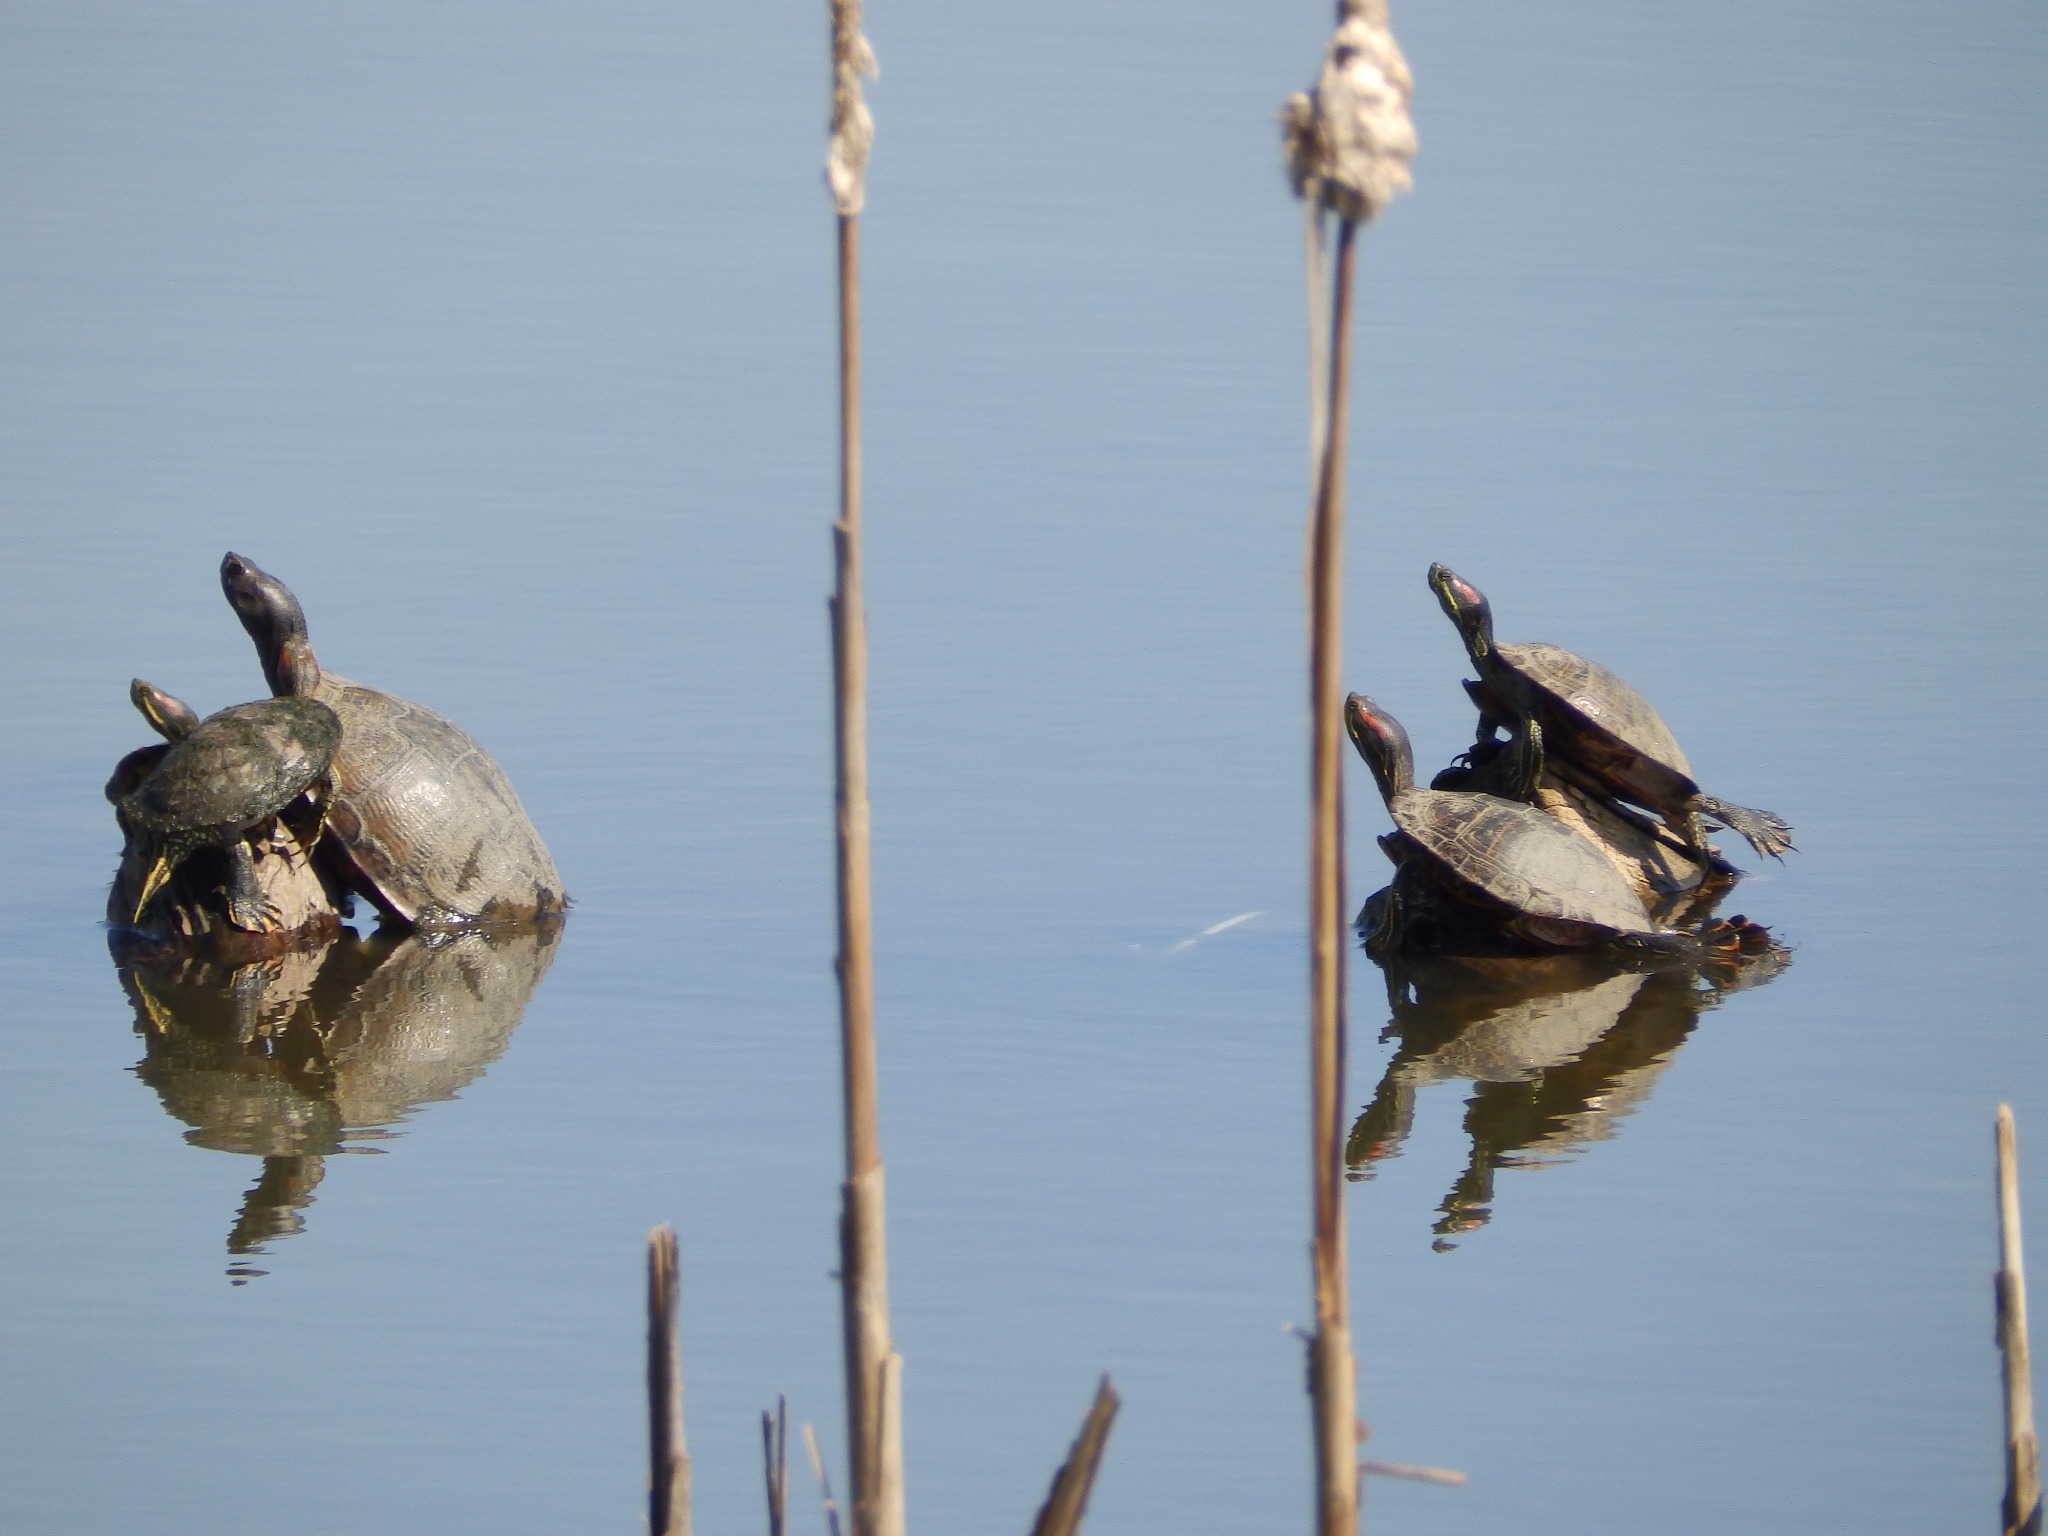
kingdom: Animalia
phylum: Chordata
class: Testudines
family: Emydidae
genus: Trachemys
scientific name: Trachemys scripta
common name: Slider
